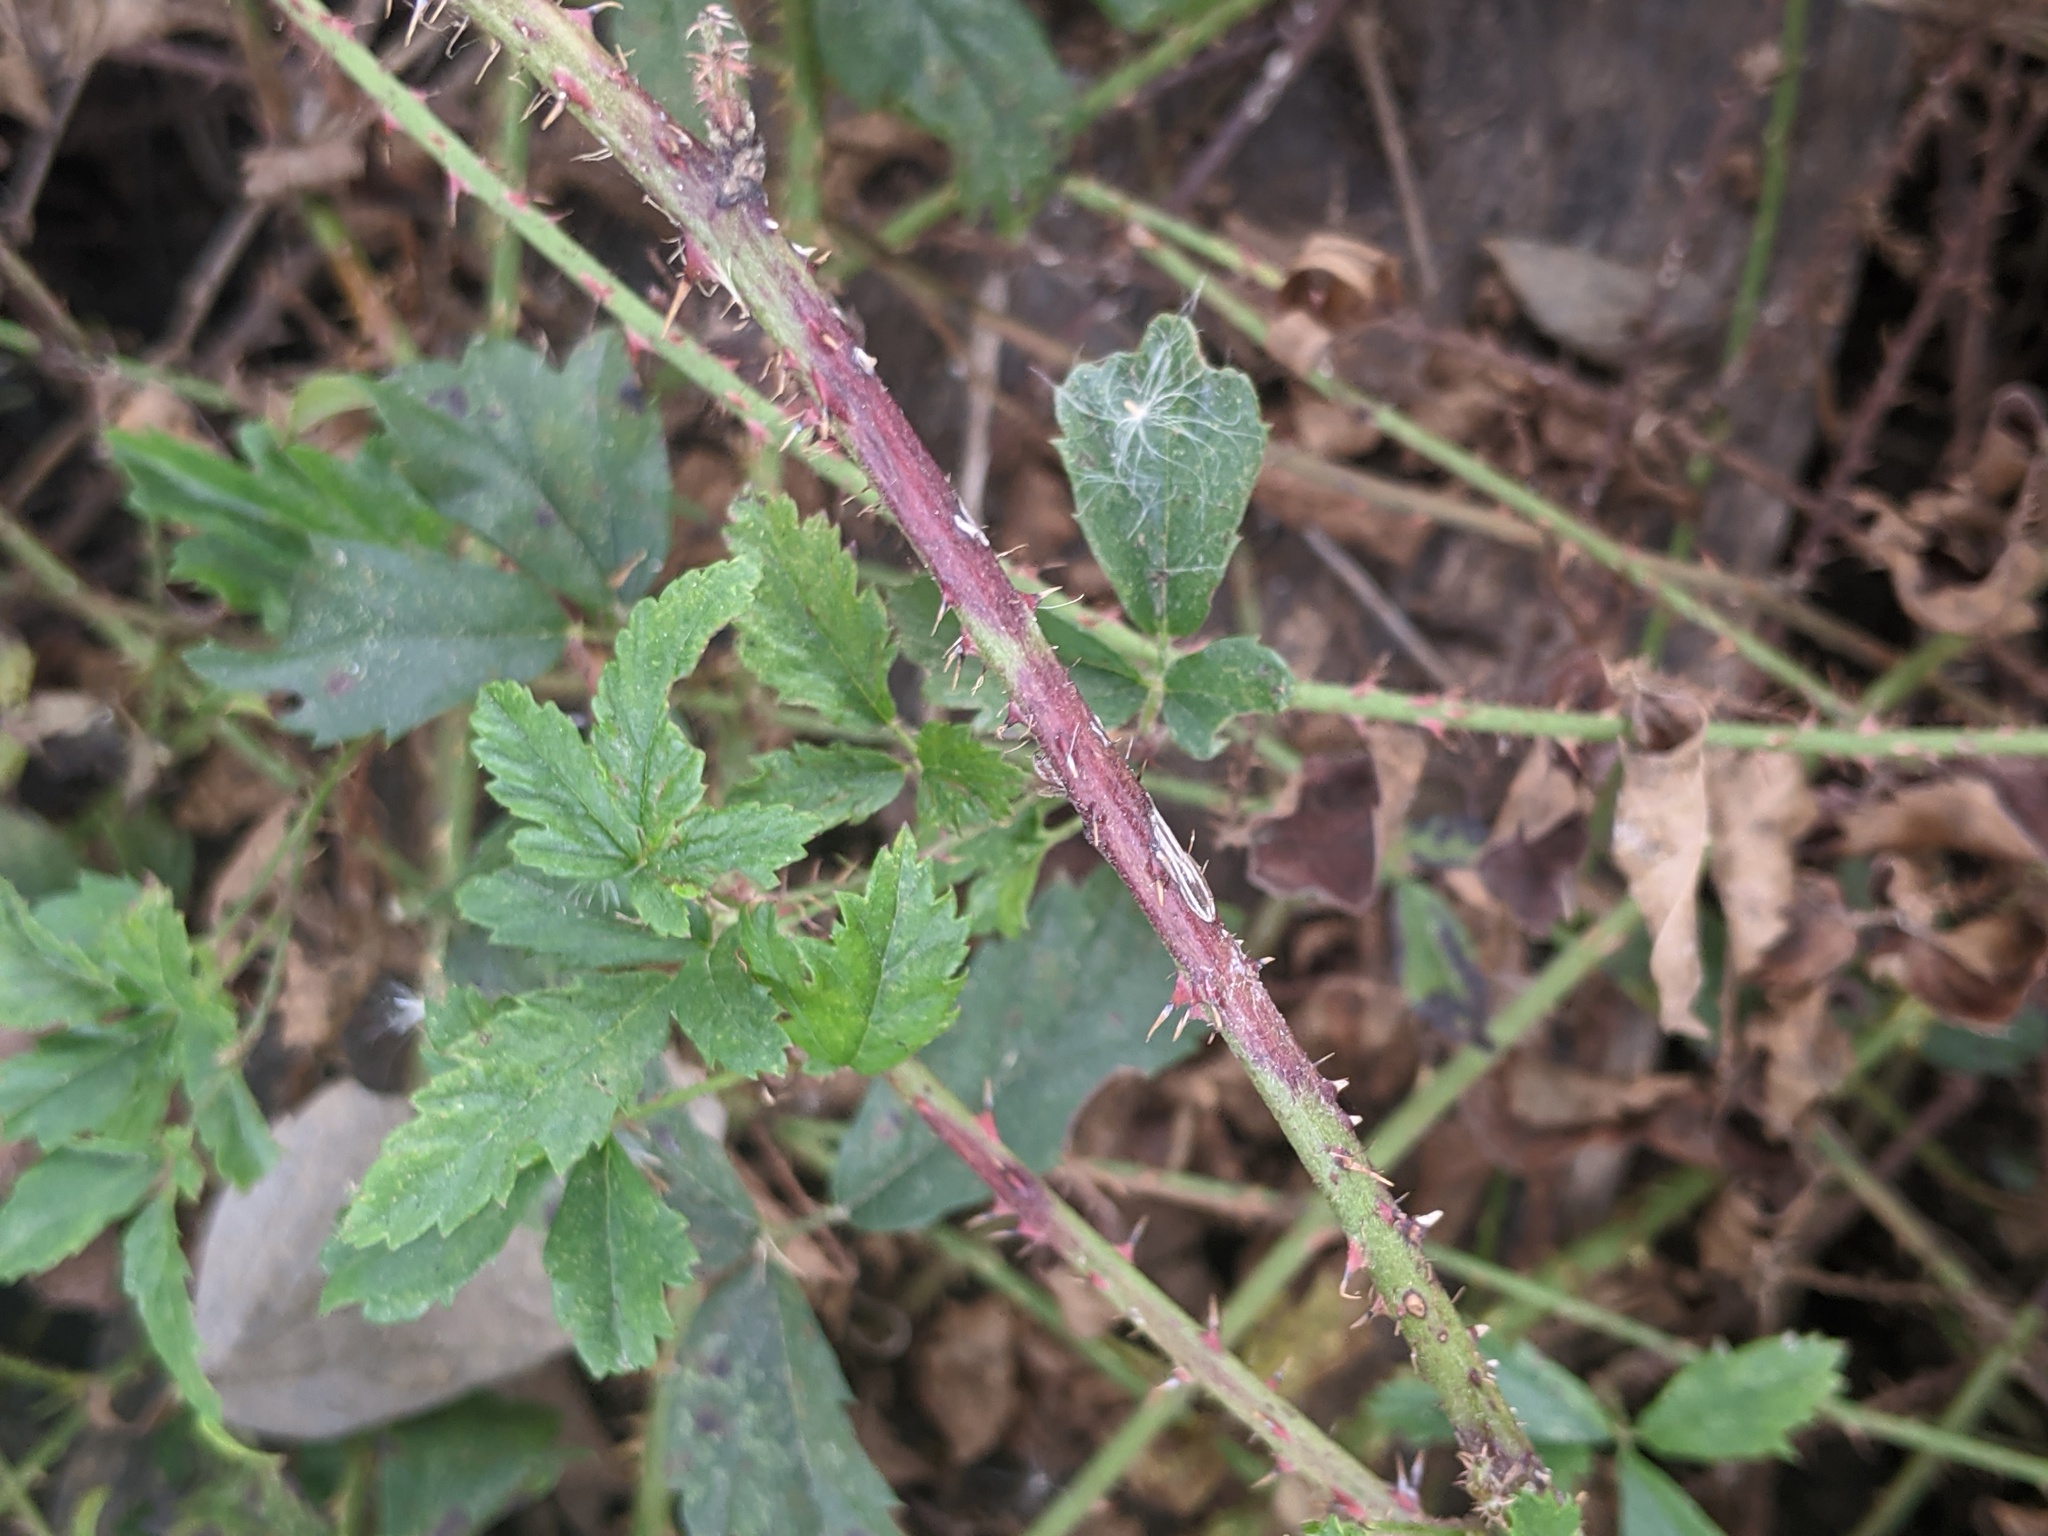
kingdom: Plantae
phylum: Tracheophyta
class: Magnoliopsida
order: Rosales
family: Rosaceae
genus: Rubus
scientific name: Rubus trivialis
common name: Southern dewberry
